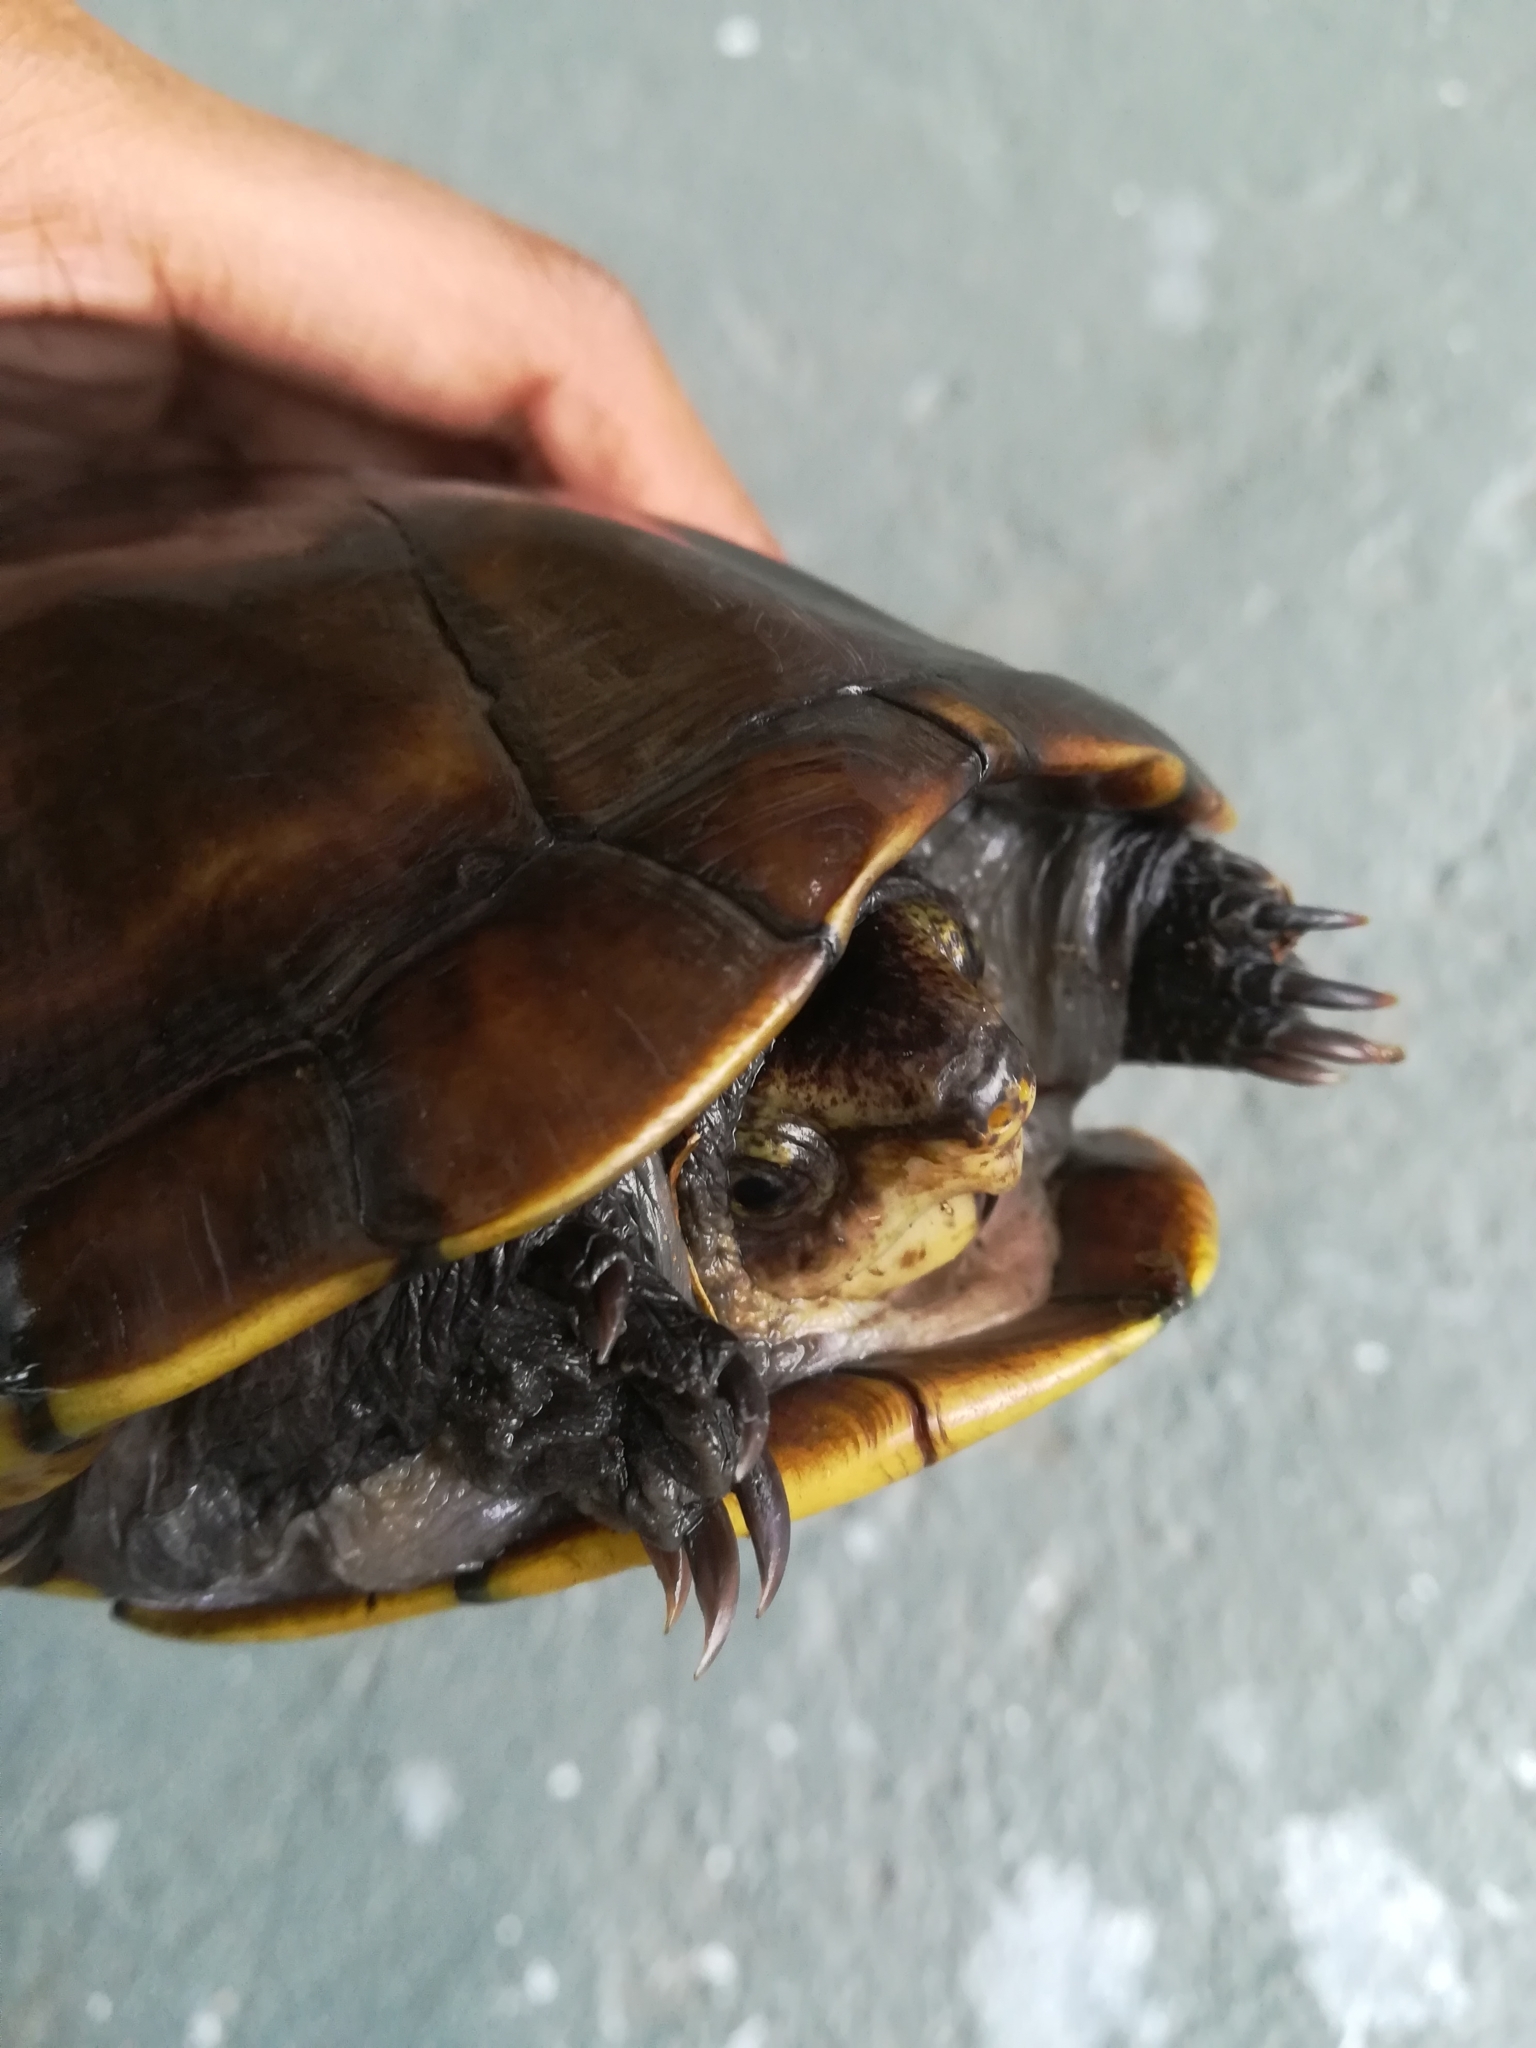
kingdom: Animalia
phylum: Chordata
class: Testudines
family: Kinosternidae
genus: Kinosternon
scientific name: Kinosternon scorpioides
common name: Scorpion mud turtle
